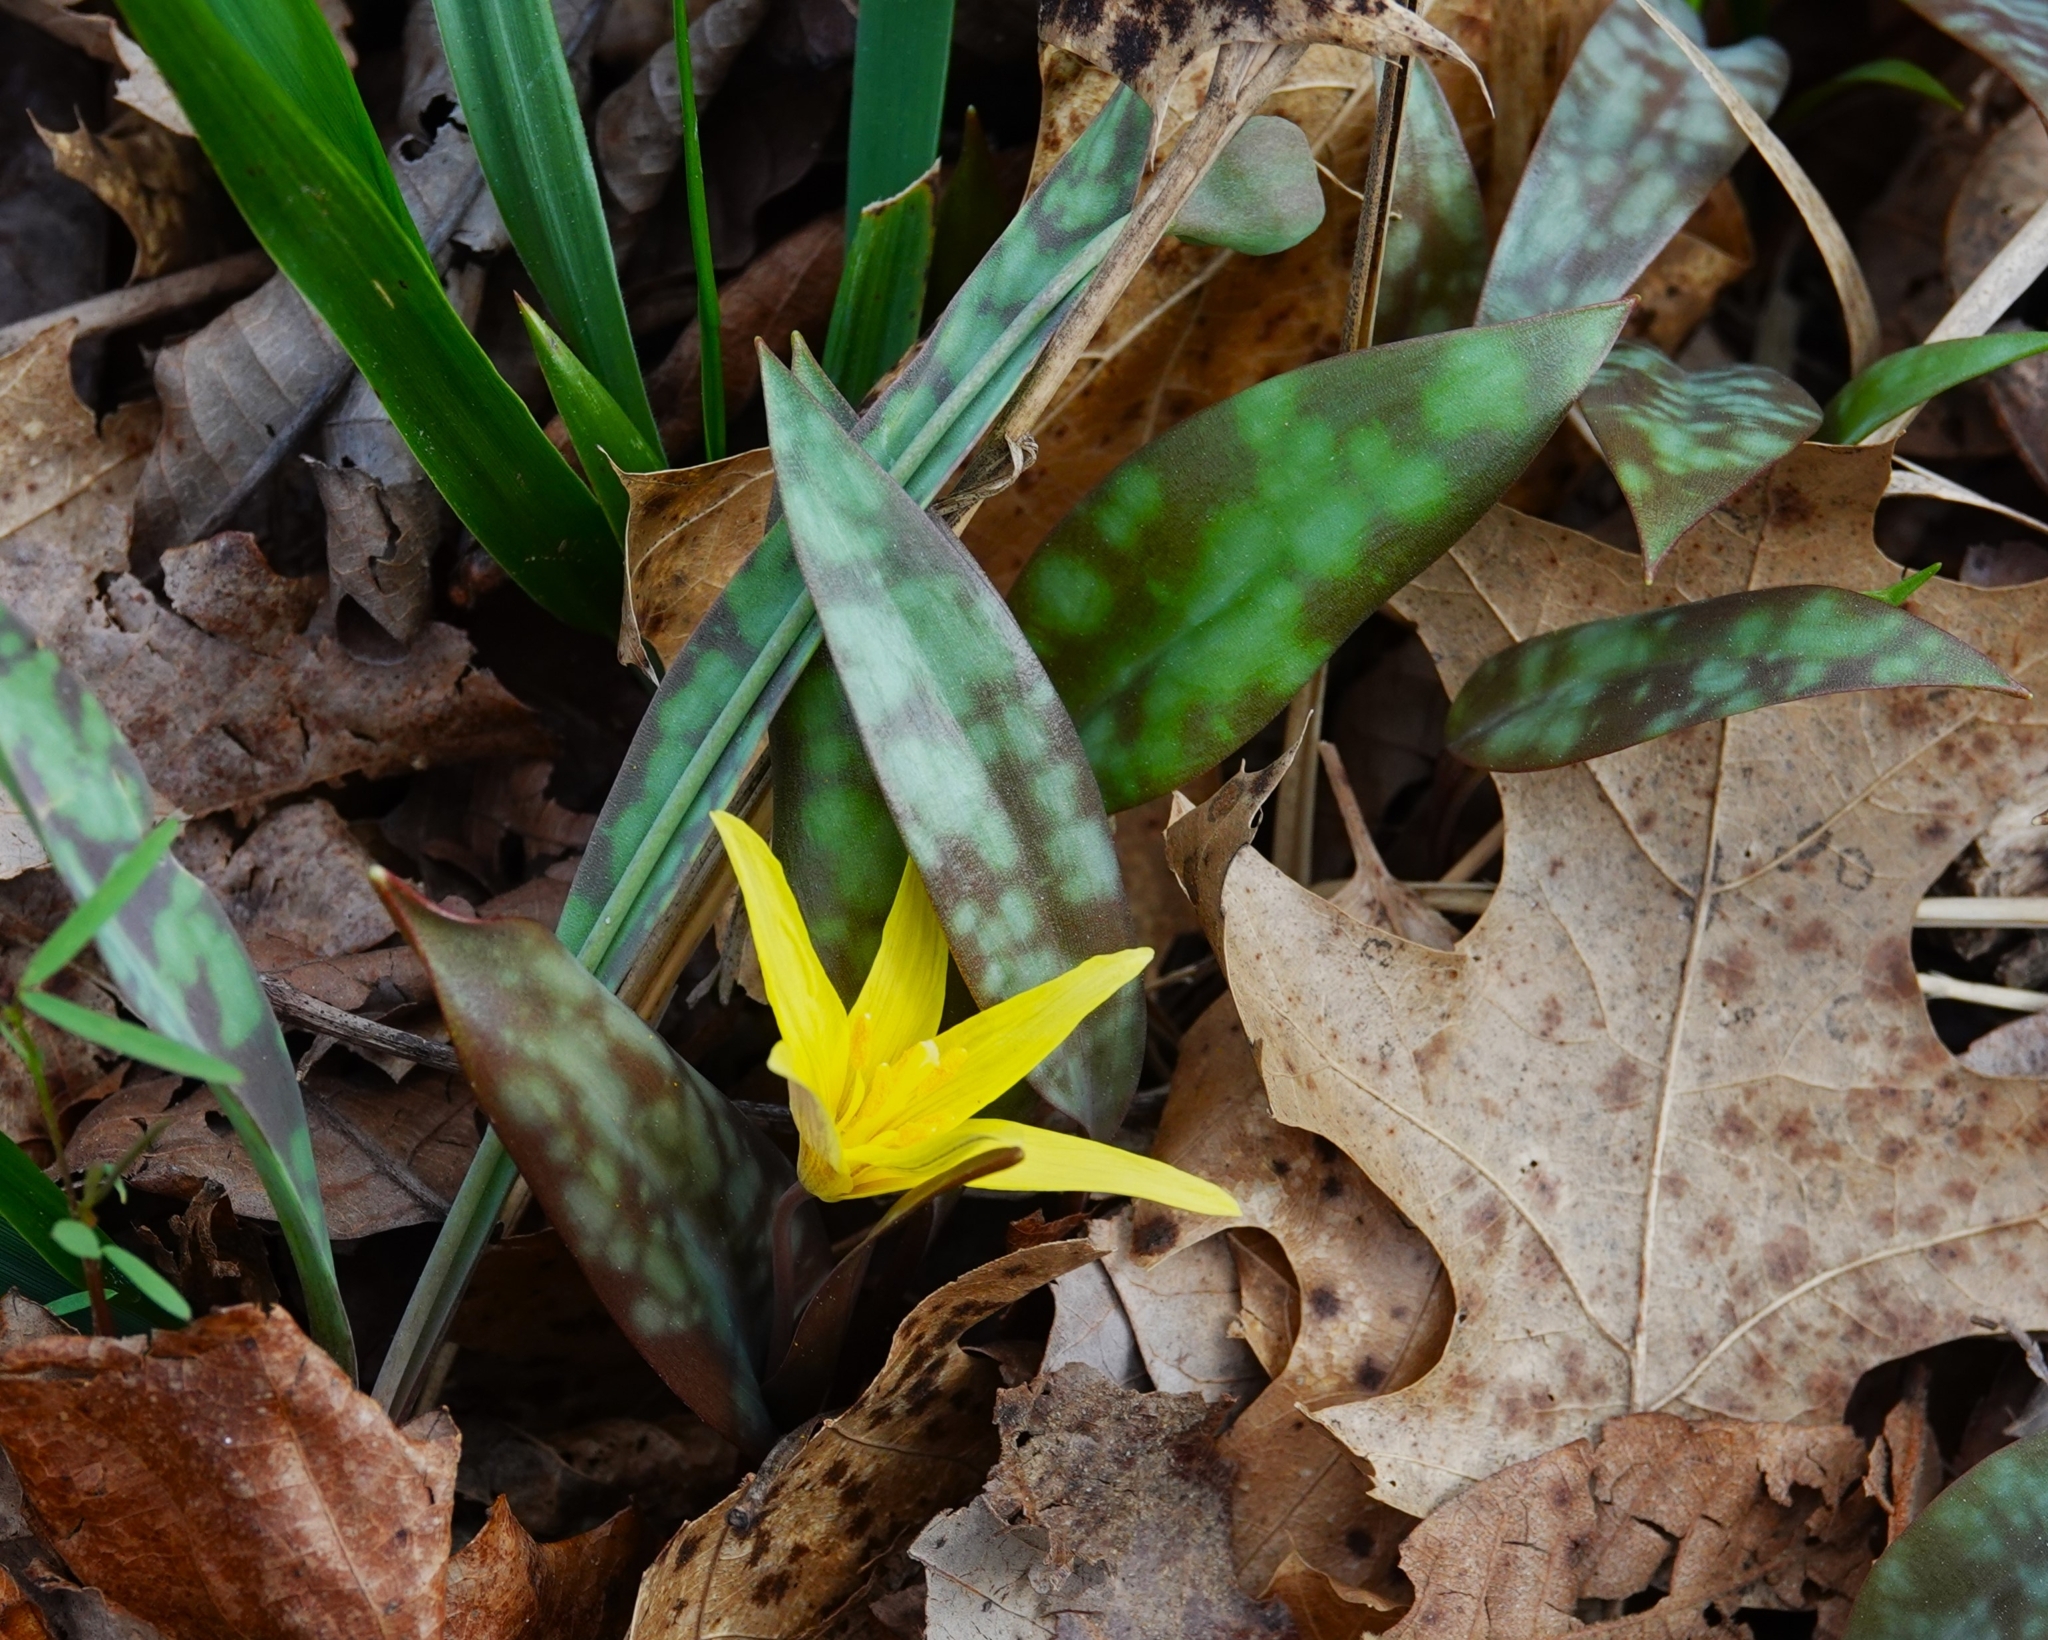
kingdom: Plantae
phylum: Tracheophyta
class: Liliopsida
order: Liliales
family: Liliaceae
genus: Erythronium
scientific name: Erythronium rostratum
